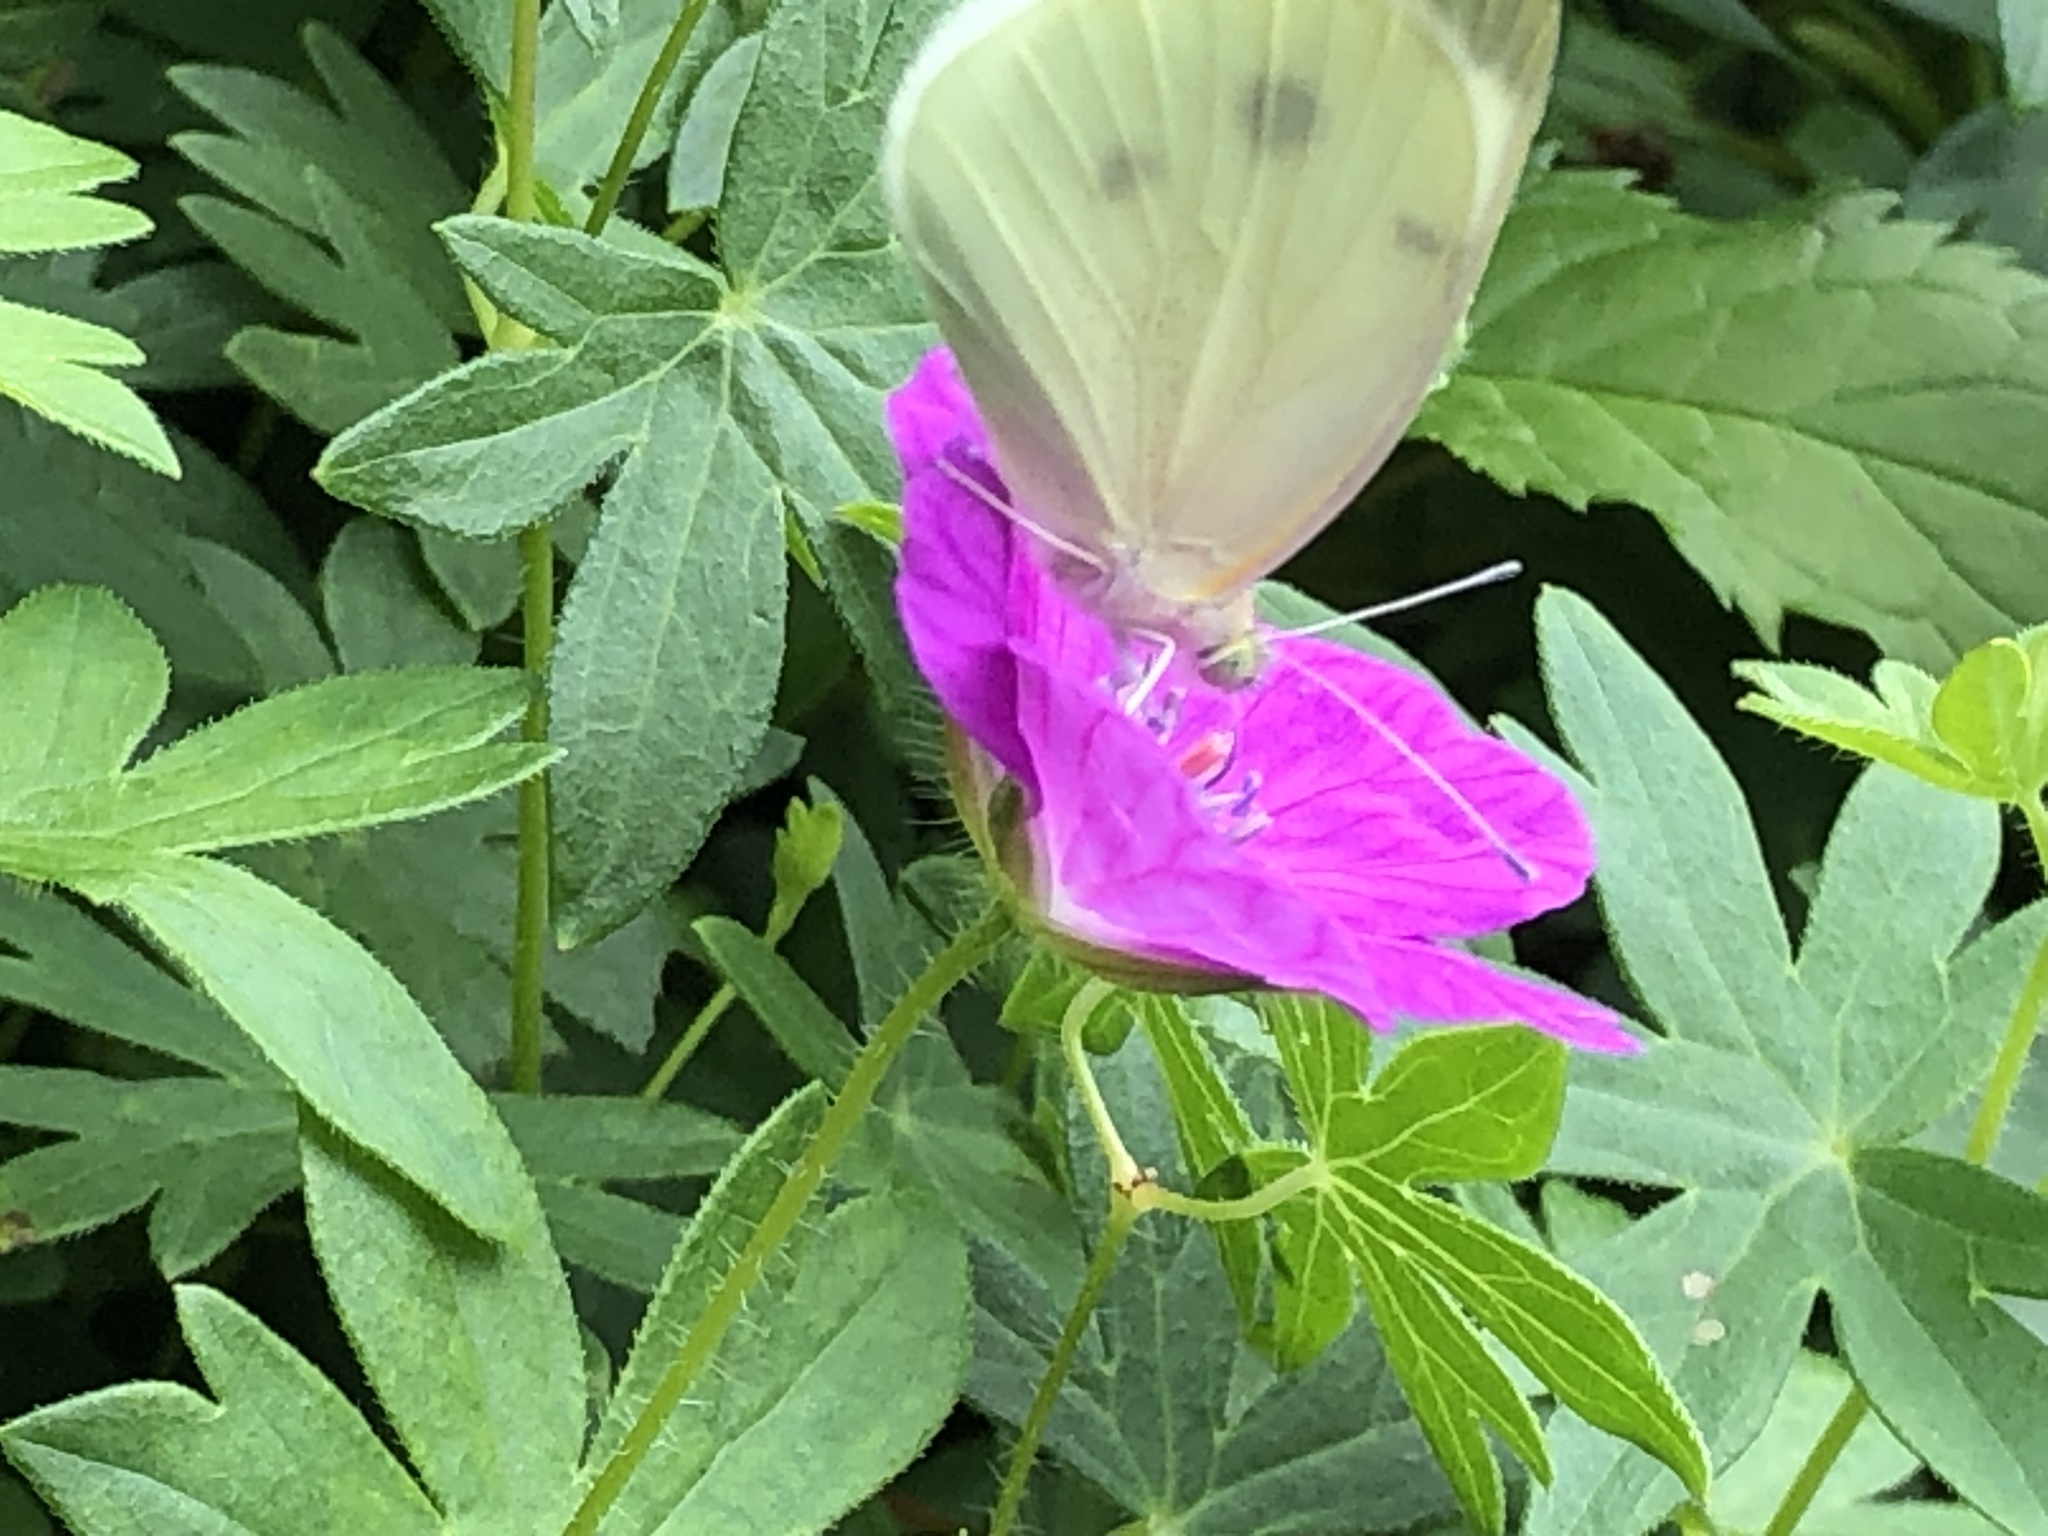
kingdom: Animalia
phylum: Arthropoda
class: Insecta
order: Lepidoptera
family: Pieridae
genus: Pieris
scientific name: Pieris rapae
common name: Small white
